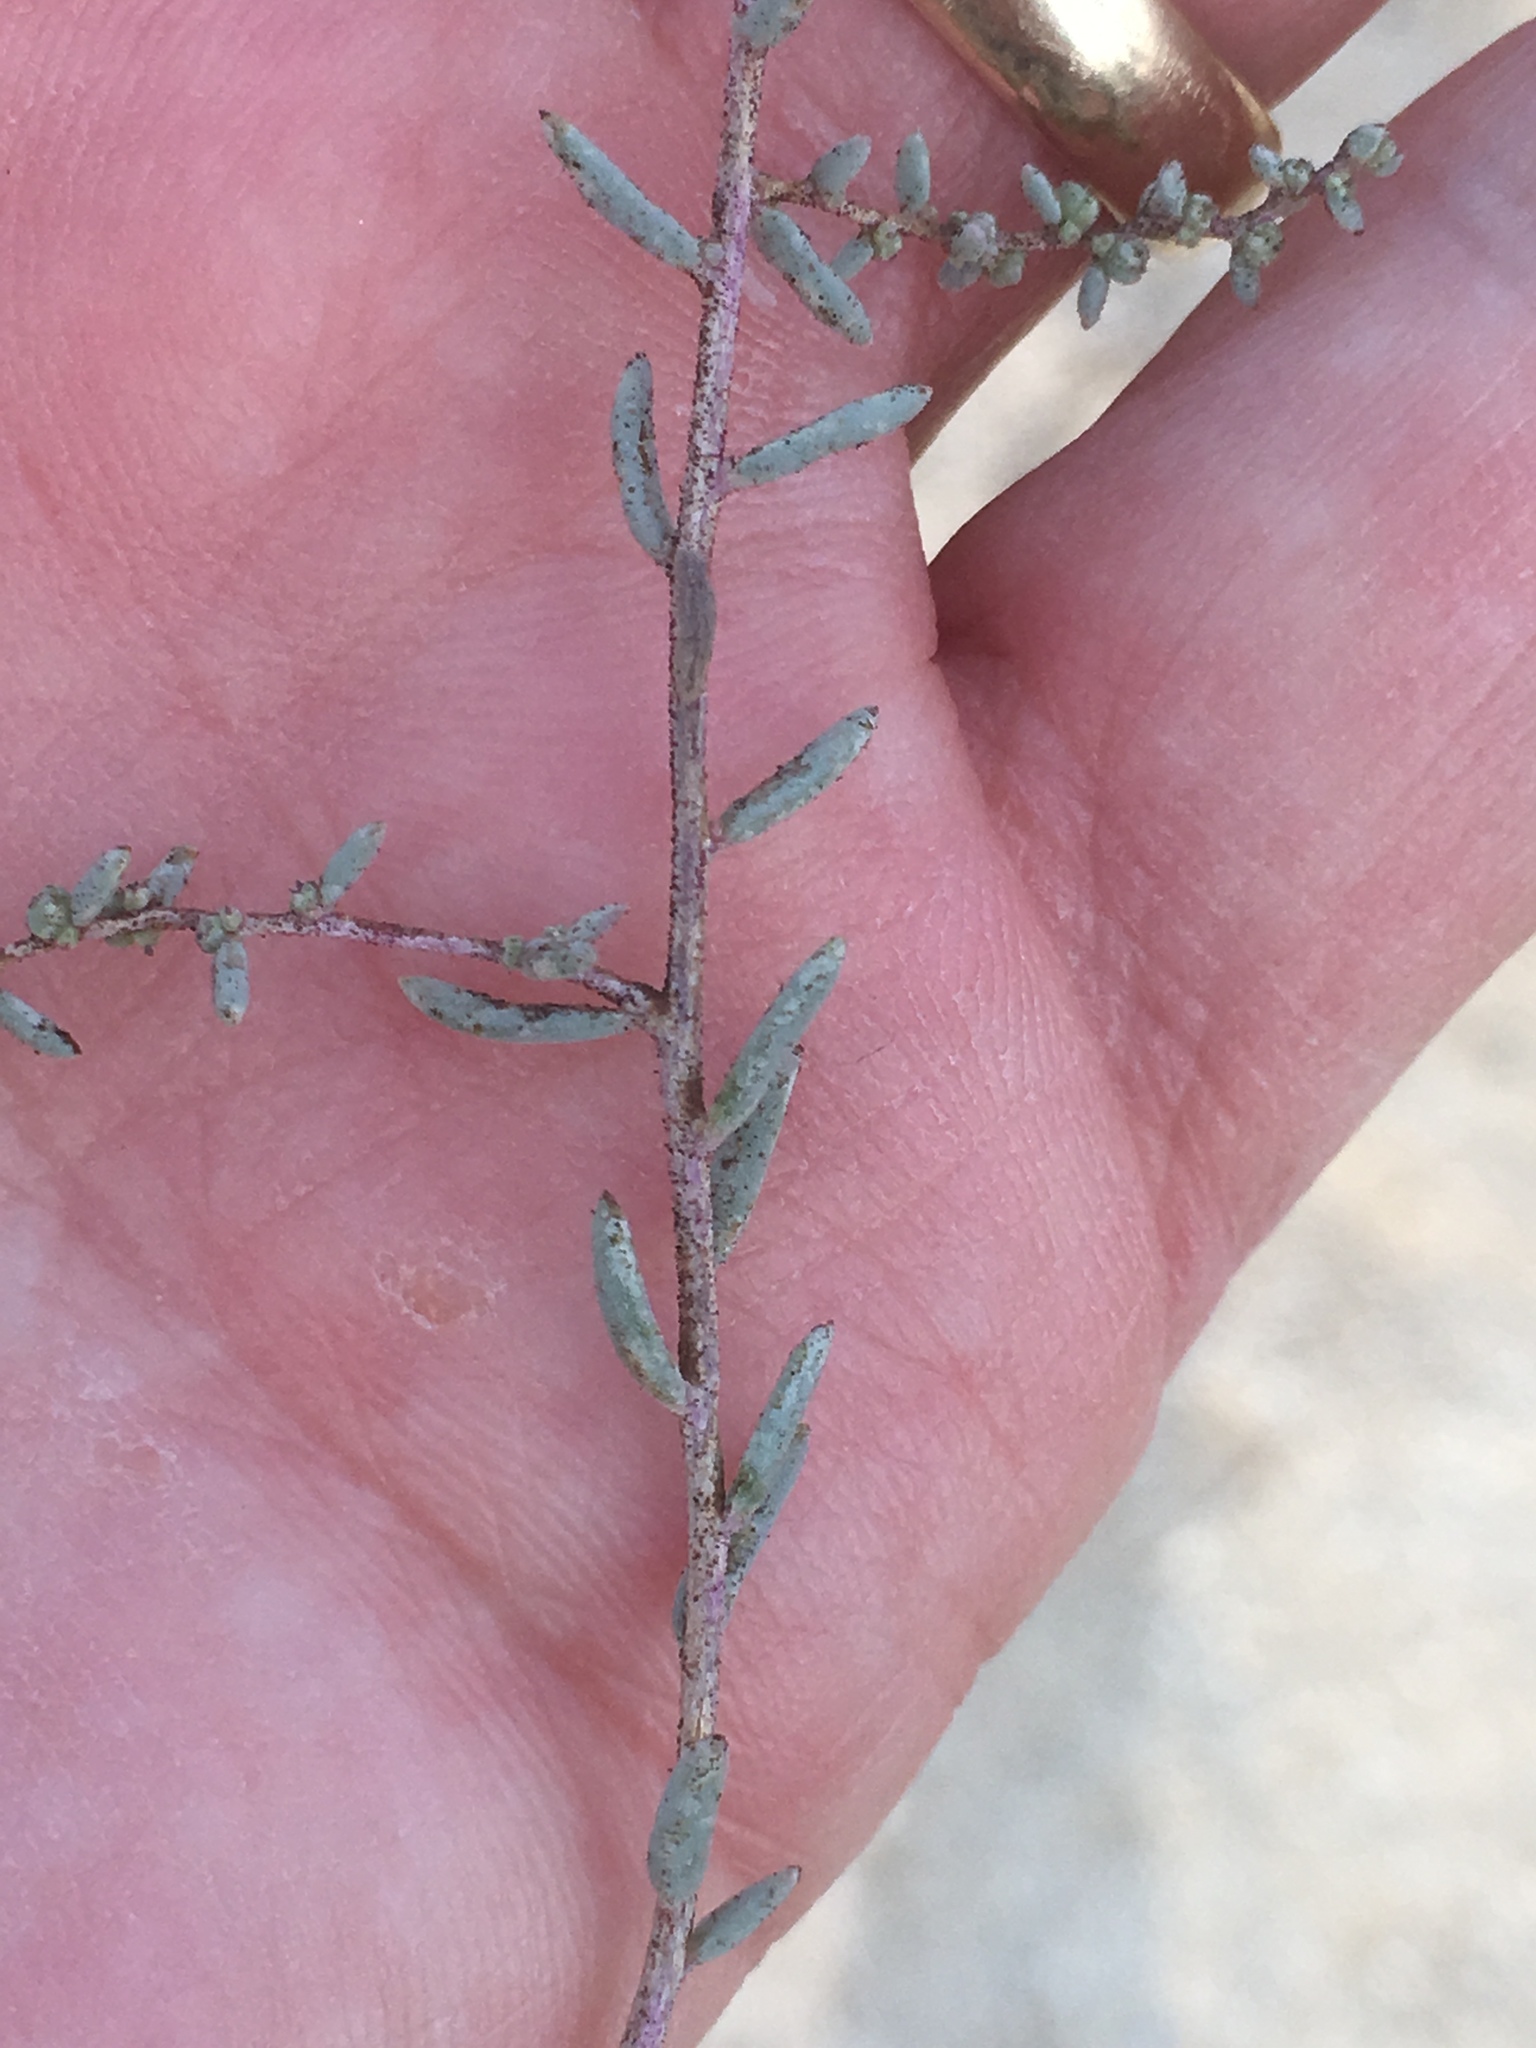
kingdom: Plantae
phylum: Tracheophyta
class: Magnoliopsida
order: Caryophyllales
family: Amaranthaceae
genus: Suaeda
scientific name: Suaeda nigra
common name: Bush seepweed
